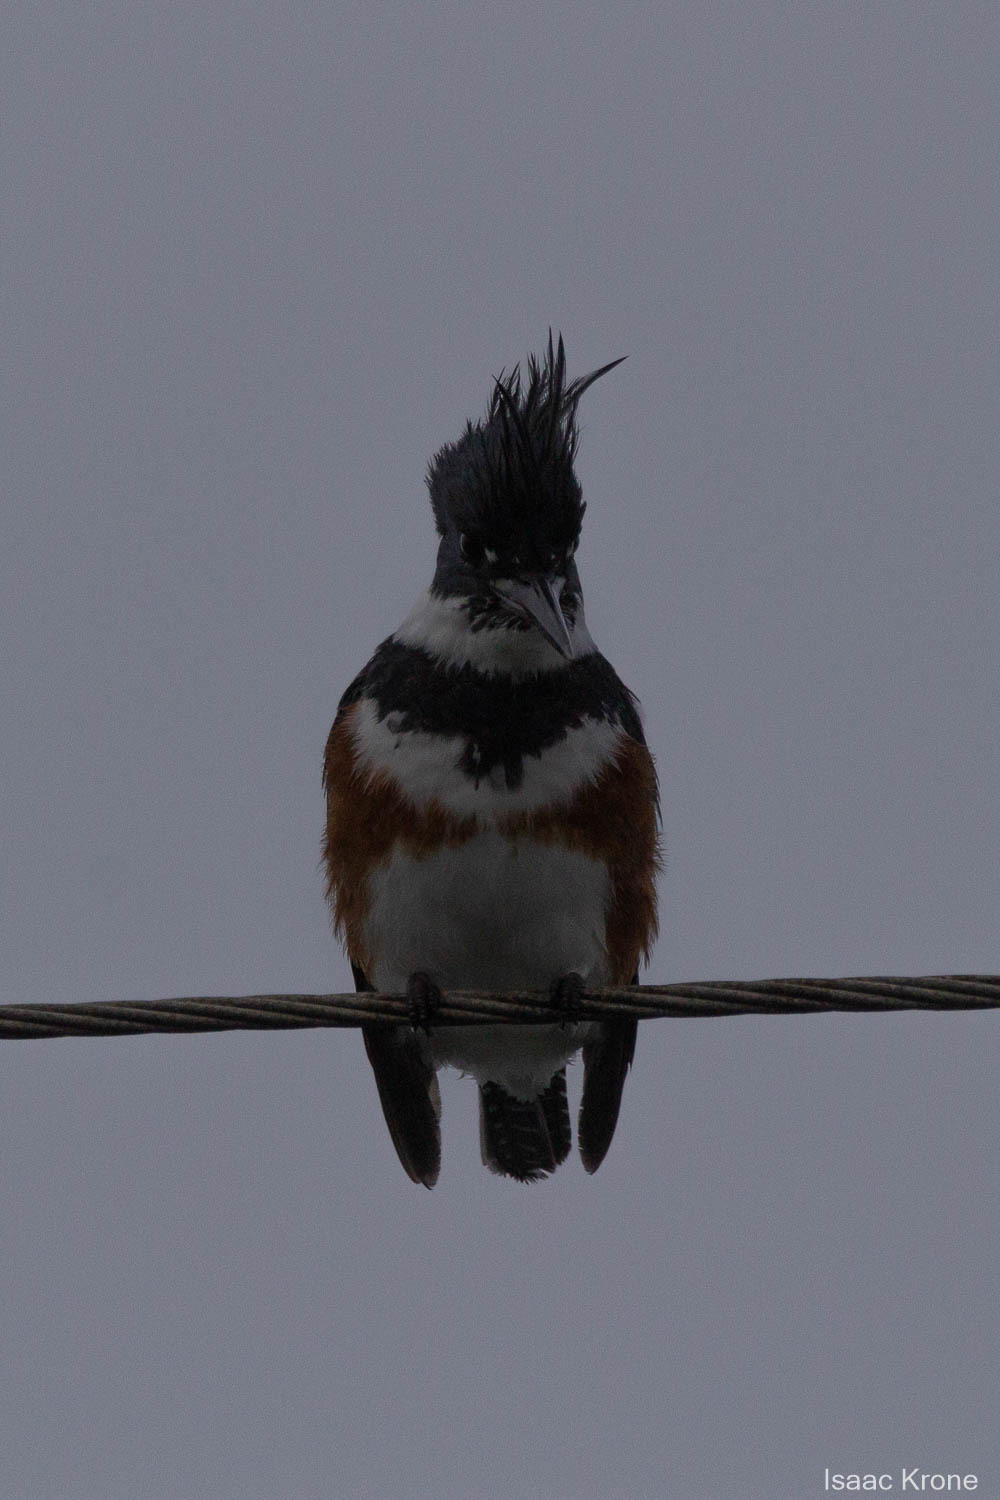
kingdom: Animalia
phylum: Chordata
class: Aves
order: Coraciiformes
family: Alcedinidae
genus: Megaceryle
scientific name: Megaceryle alcyon
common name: Belted kingfisher
